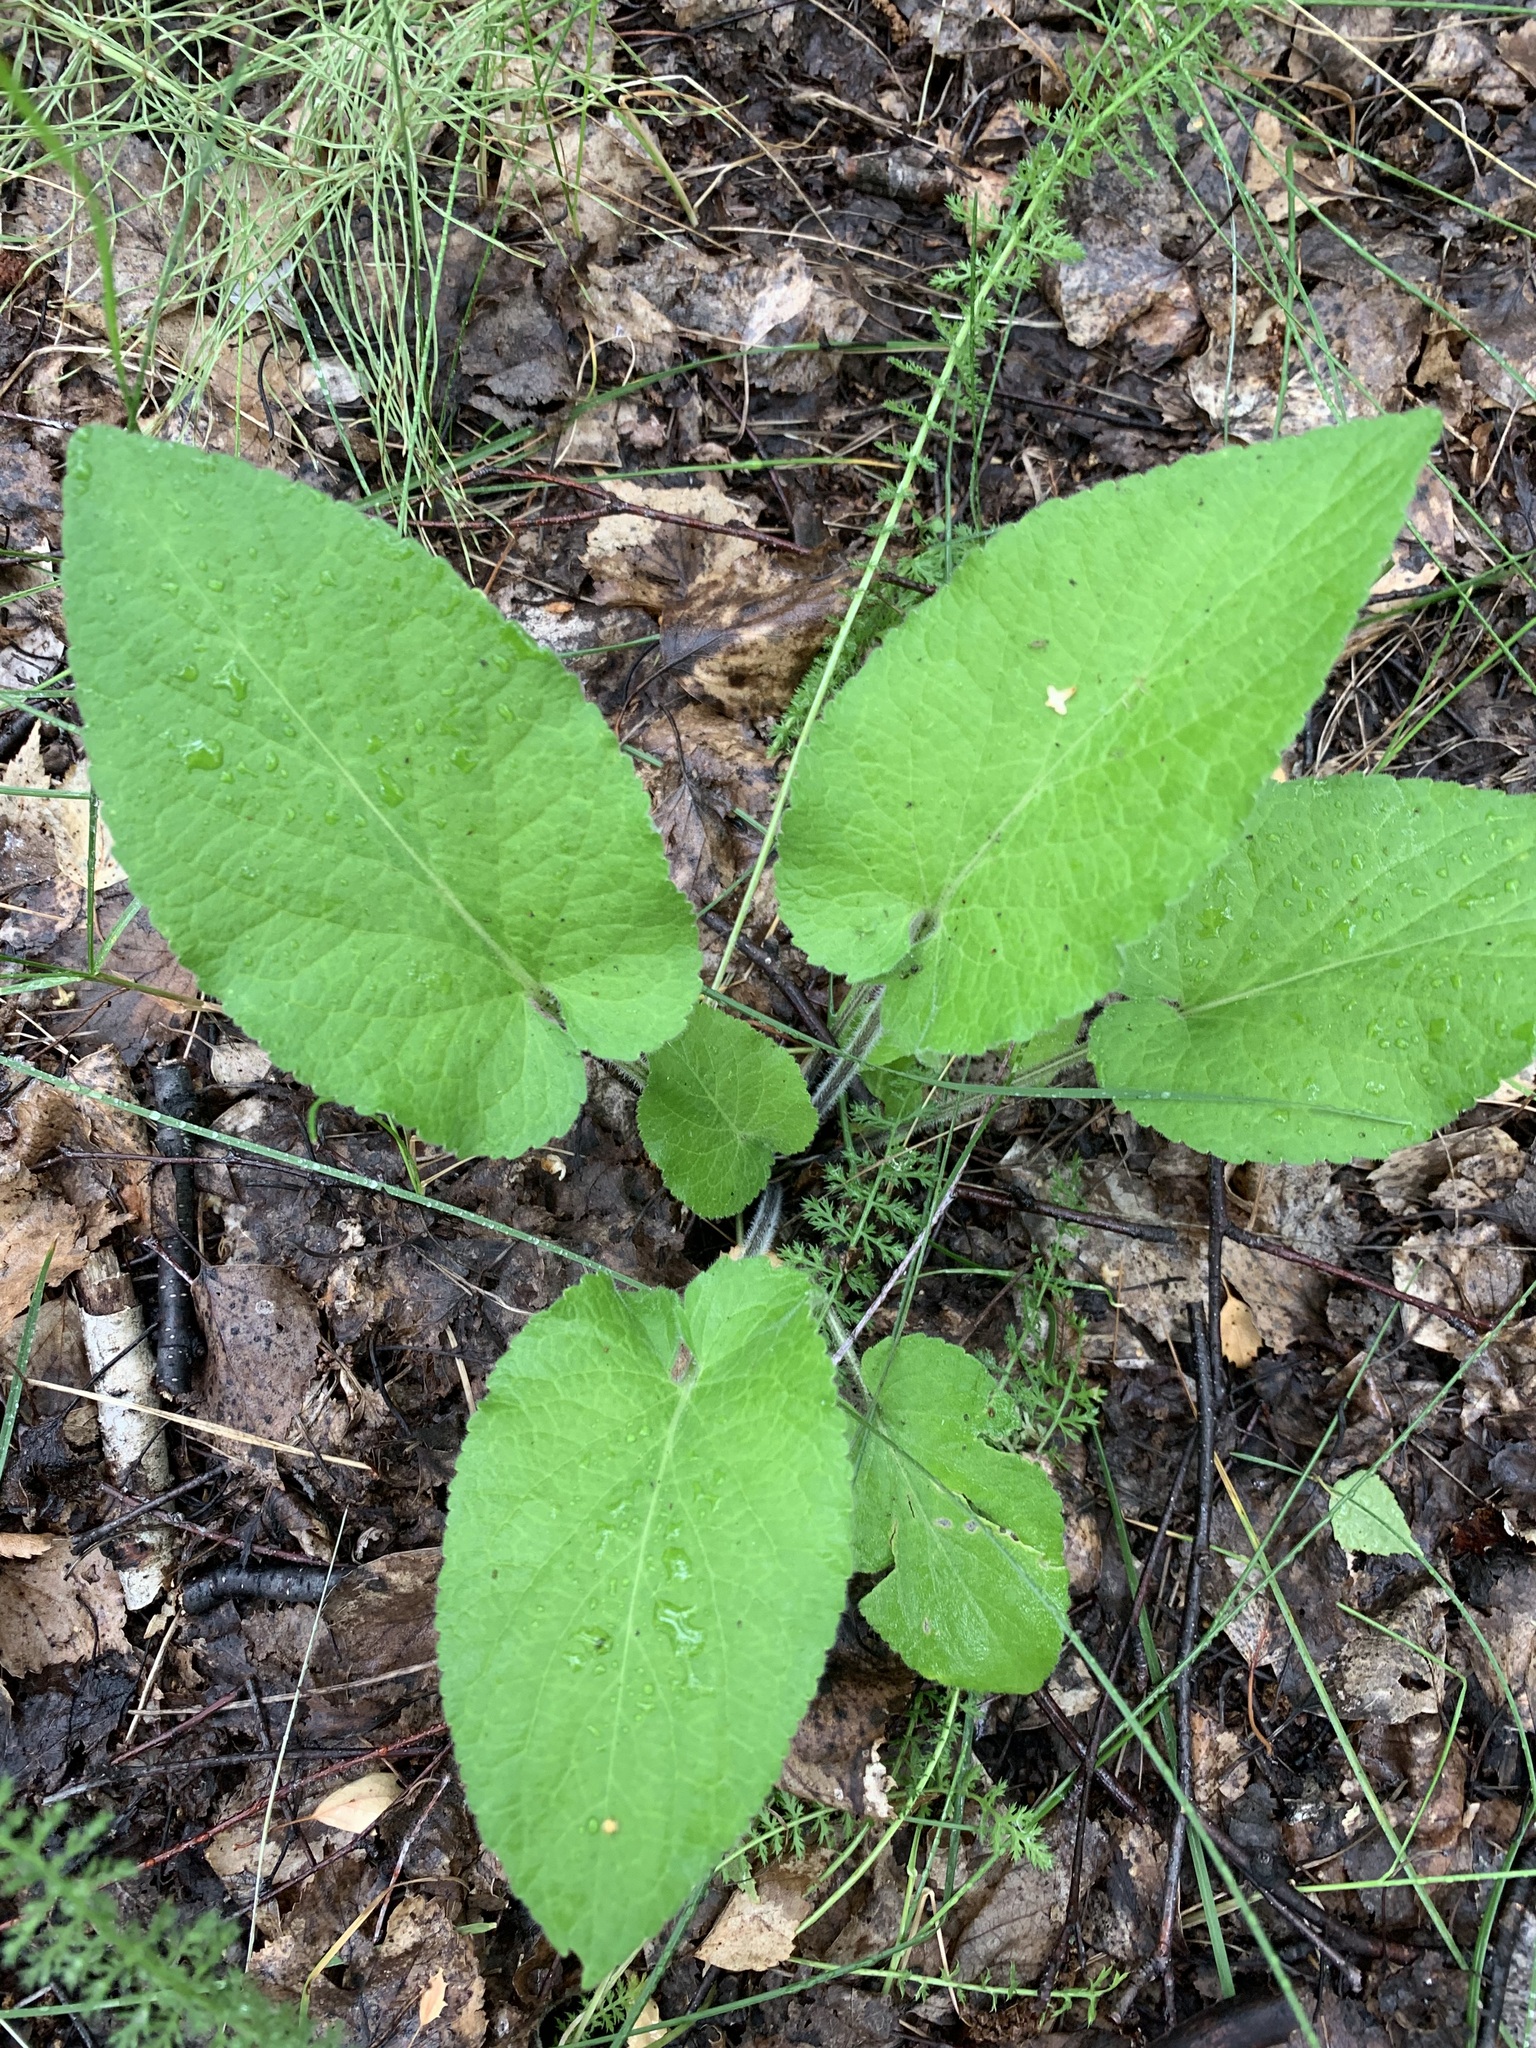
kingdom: Plantae
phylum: Tracheophyta
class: Magnoliopsida
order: Malpighiales
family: Violaceae
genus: Viola
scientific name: Viola hirta
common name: Hairy violet
